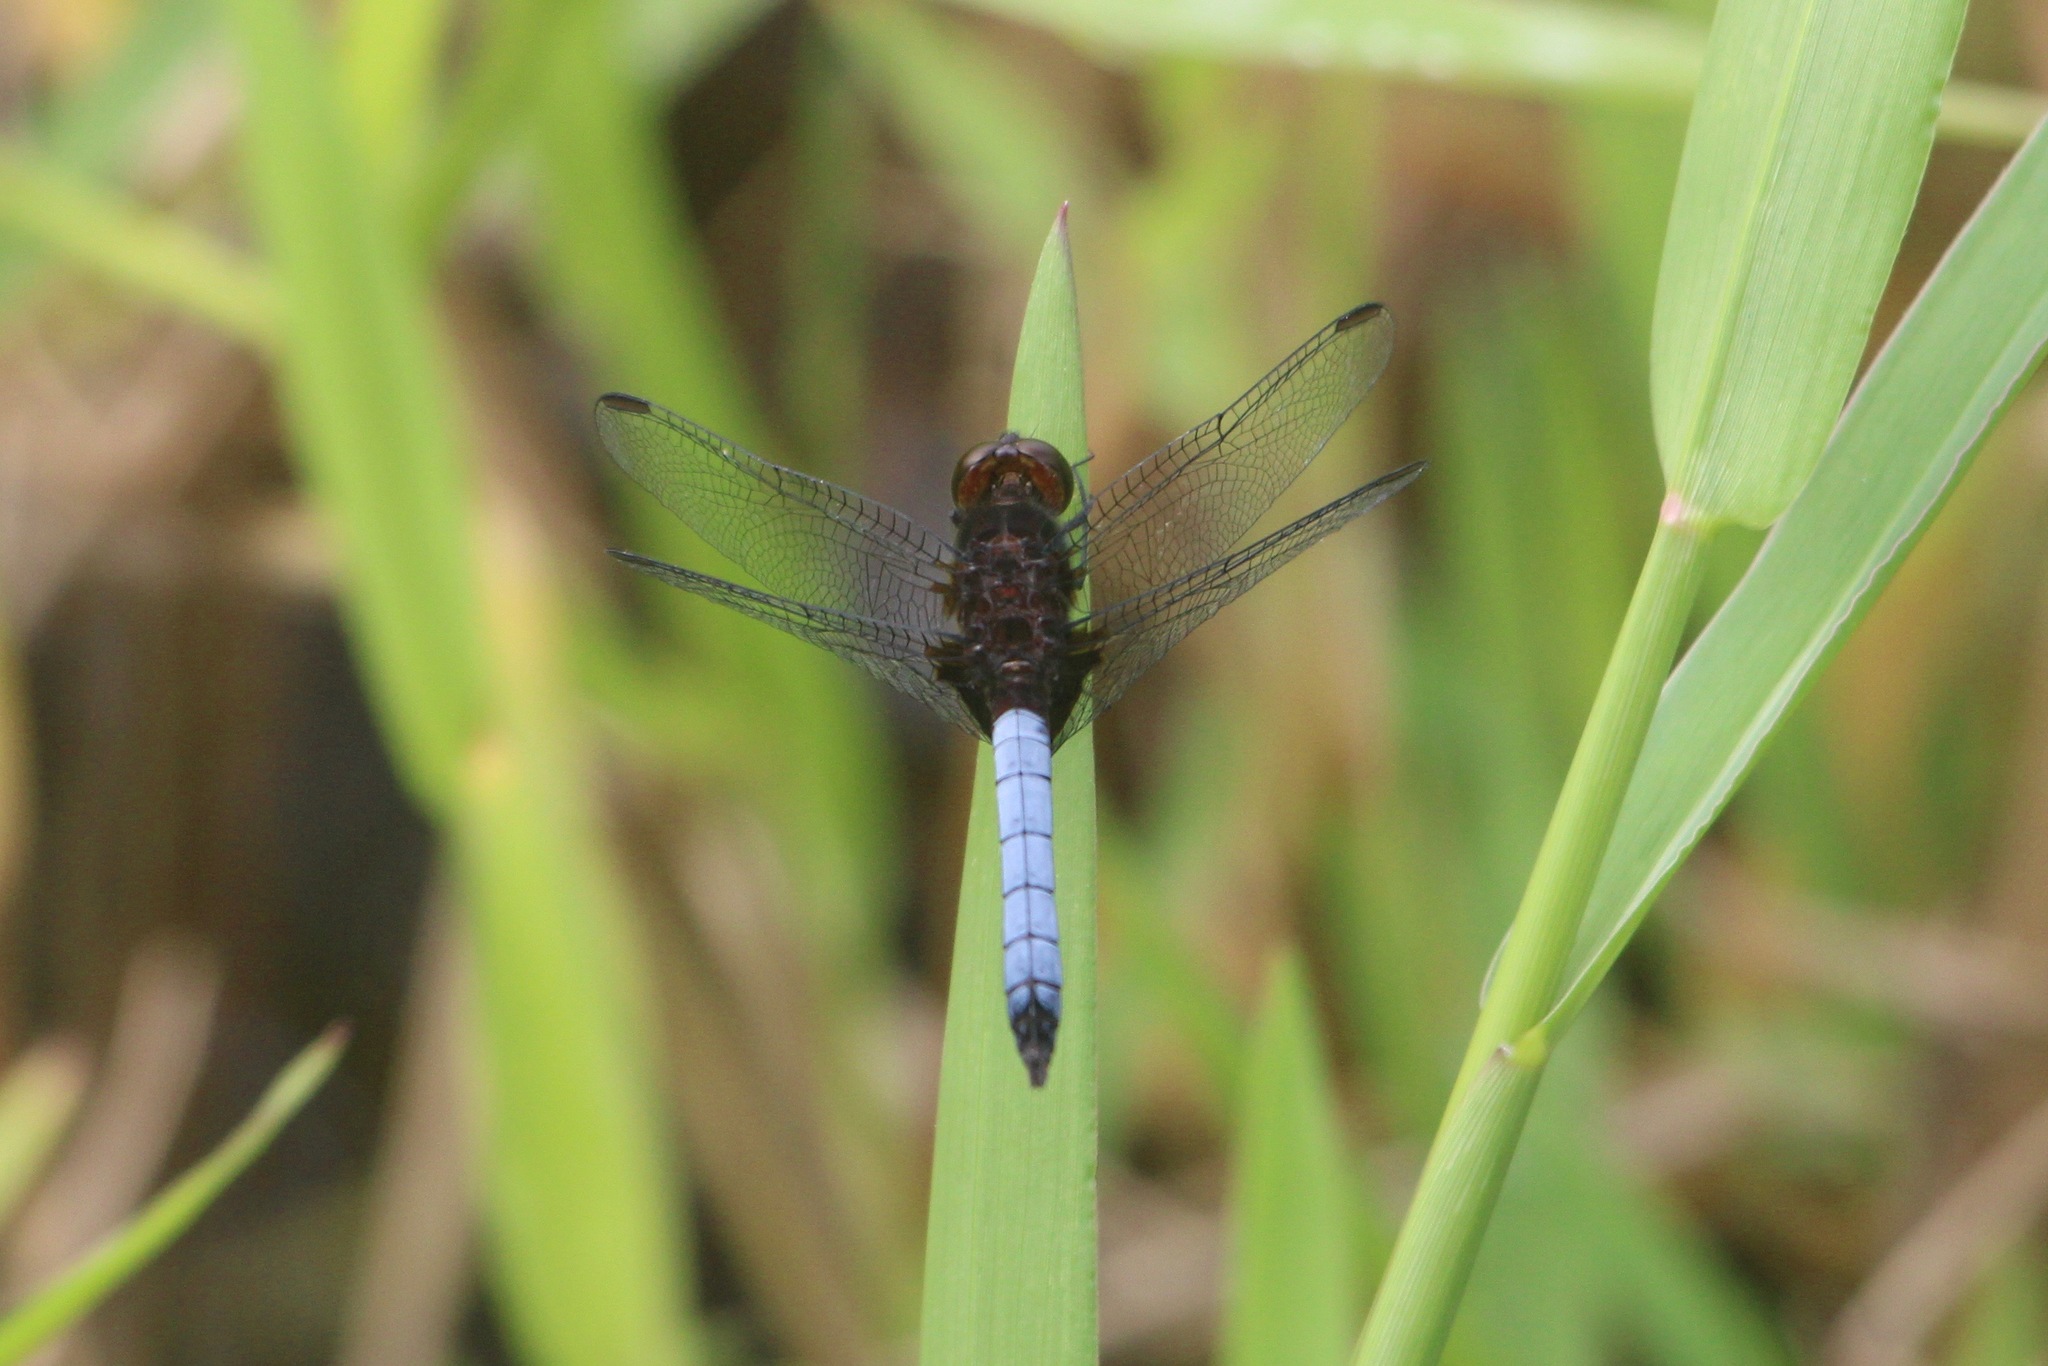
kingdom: Animalia
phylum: Arthropoda
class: Insecta
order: Odonata
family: Libellulidae
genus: Erythrodiplax
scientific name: Erythrodiplax fusca
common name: Red-faced dragonlet
